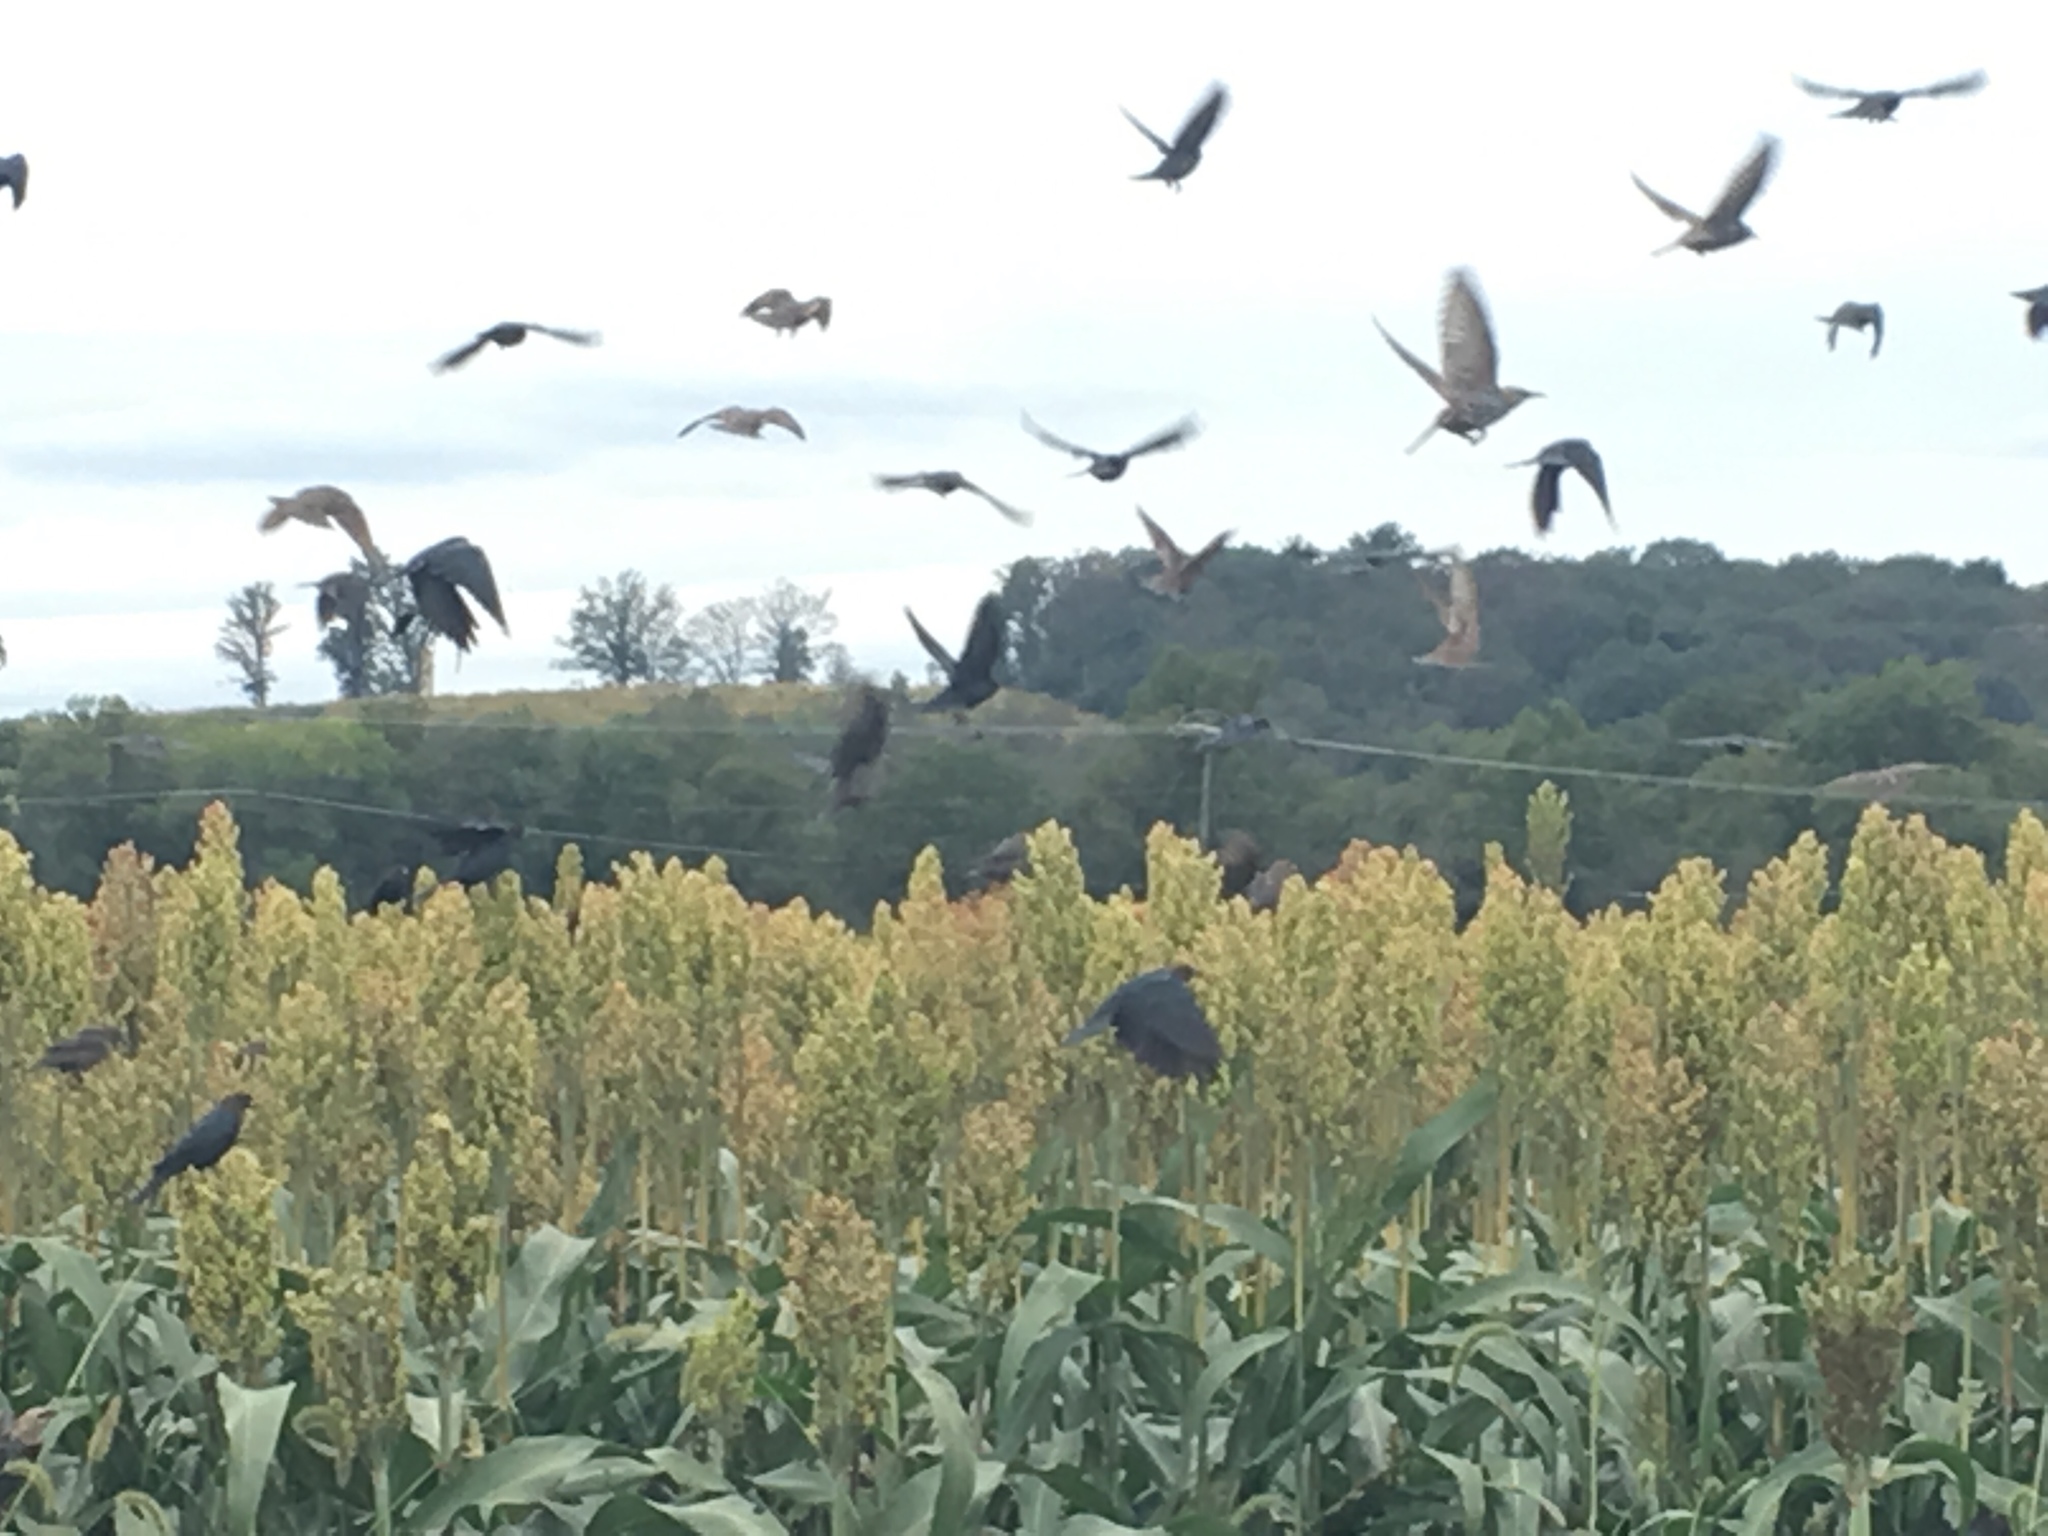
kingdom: Animalia
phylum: Chordata
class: Aves
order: Passeriformes
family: Sturnidae
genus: Sturnus
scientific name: Sturnus vulgaris
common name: Common starling
